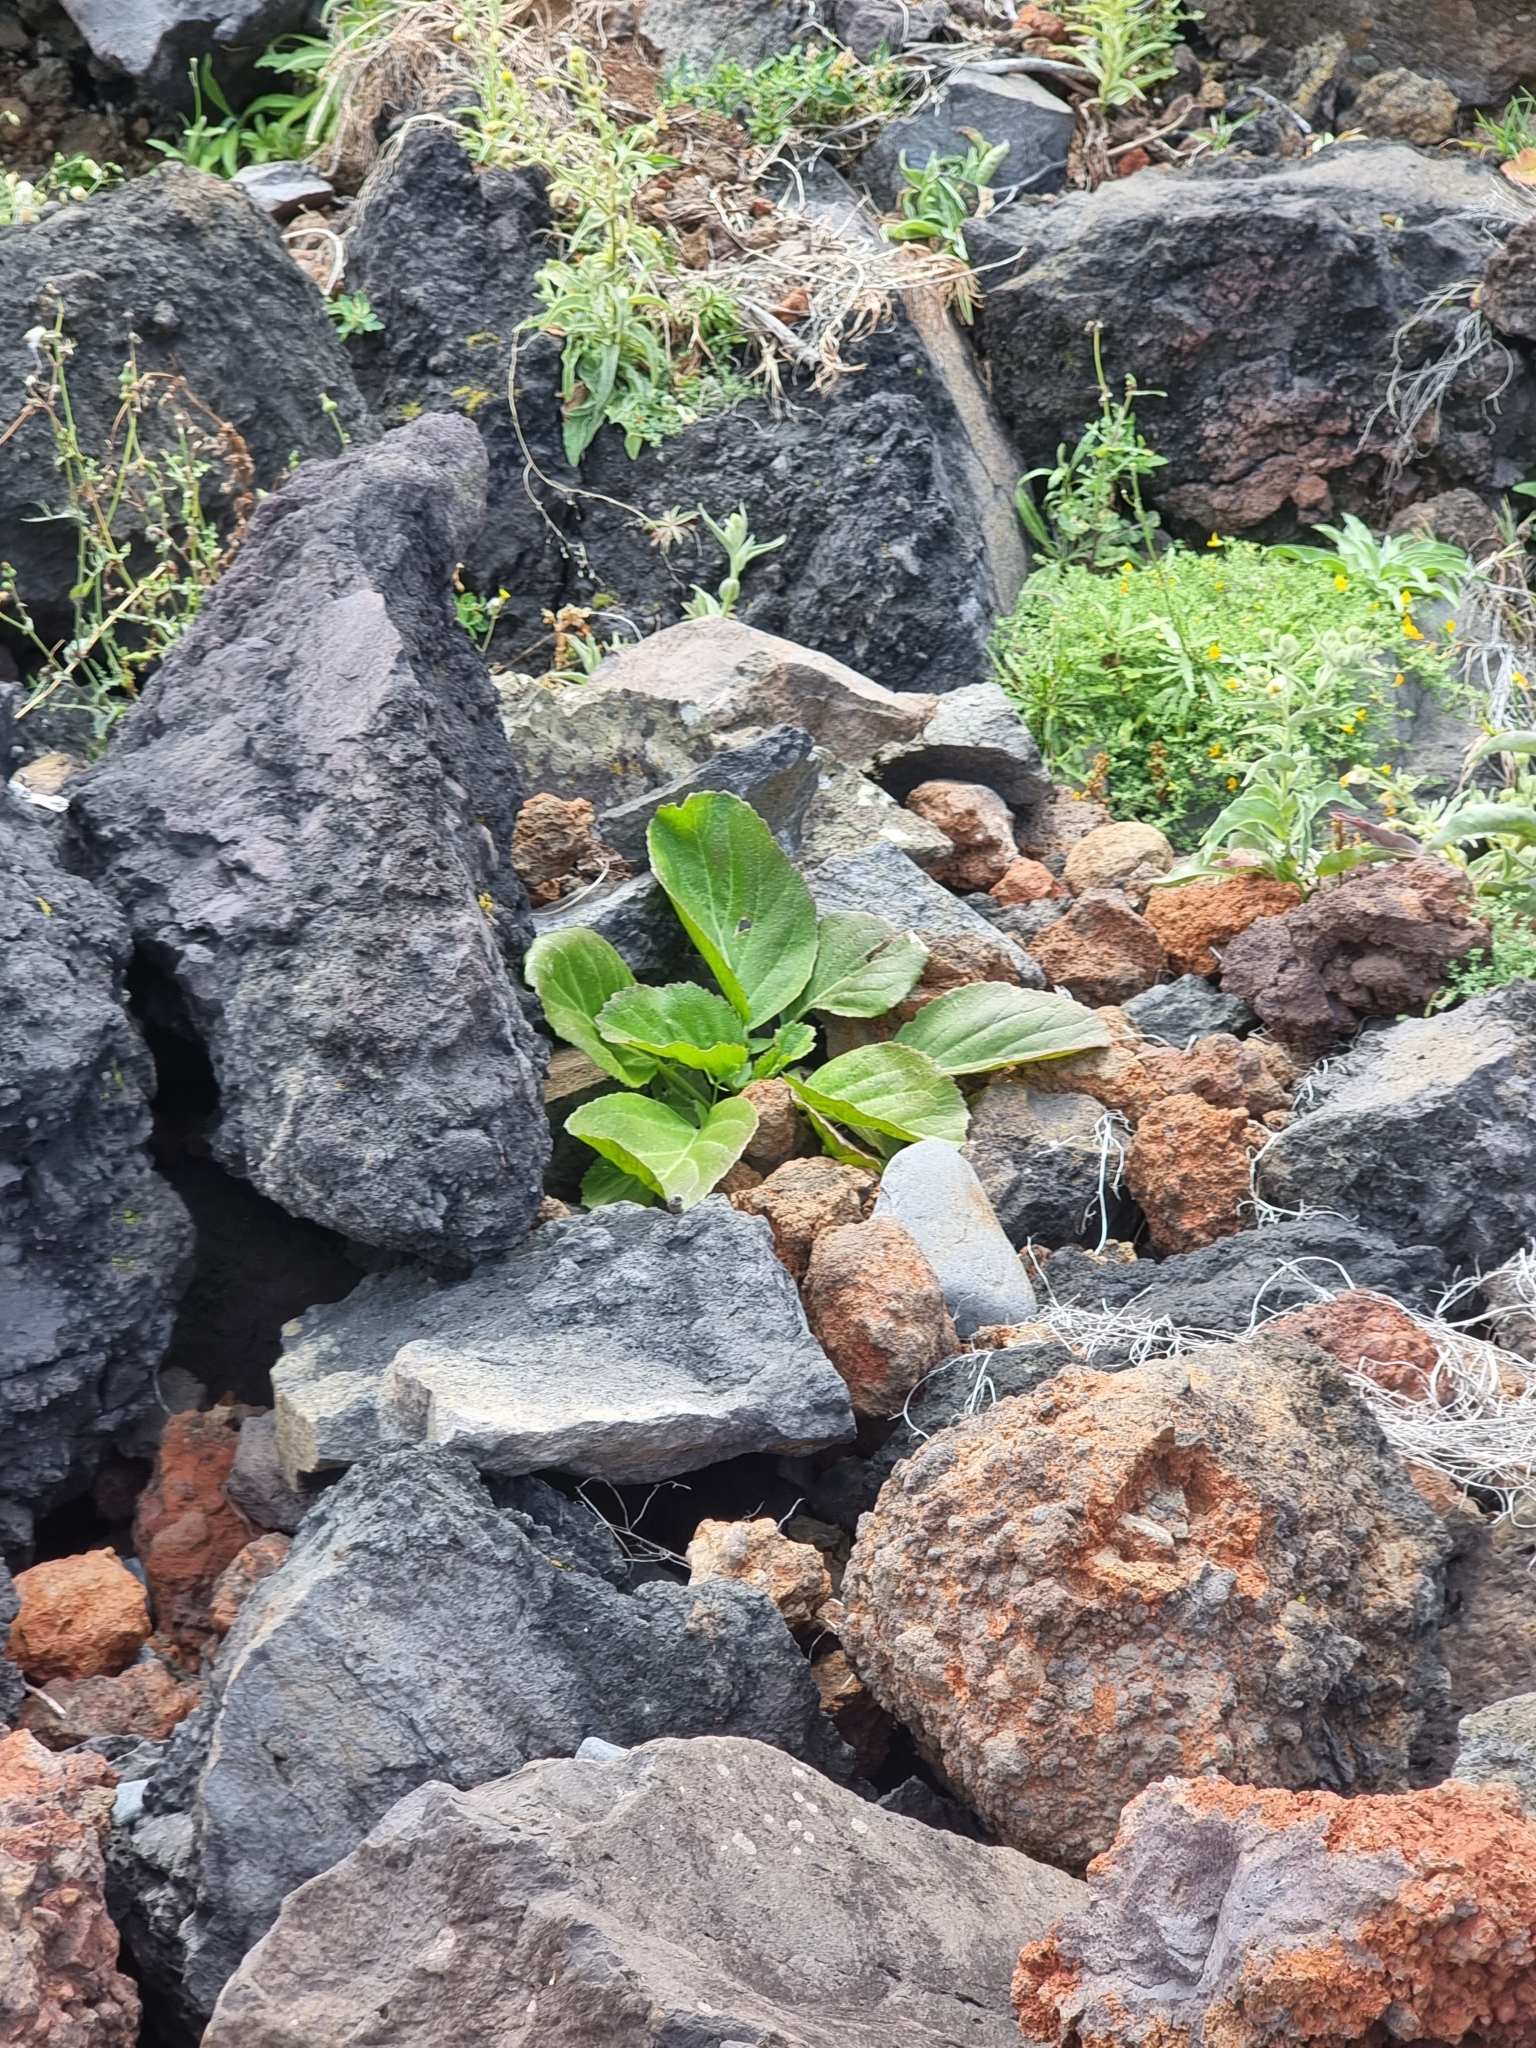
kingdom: Plantae
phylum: Tracheophyta
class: Magnoliopsida
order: Brassicales
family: Brassicaceae
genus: Sinapidendron
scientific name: Sinapidendron rupestre
